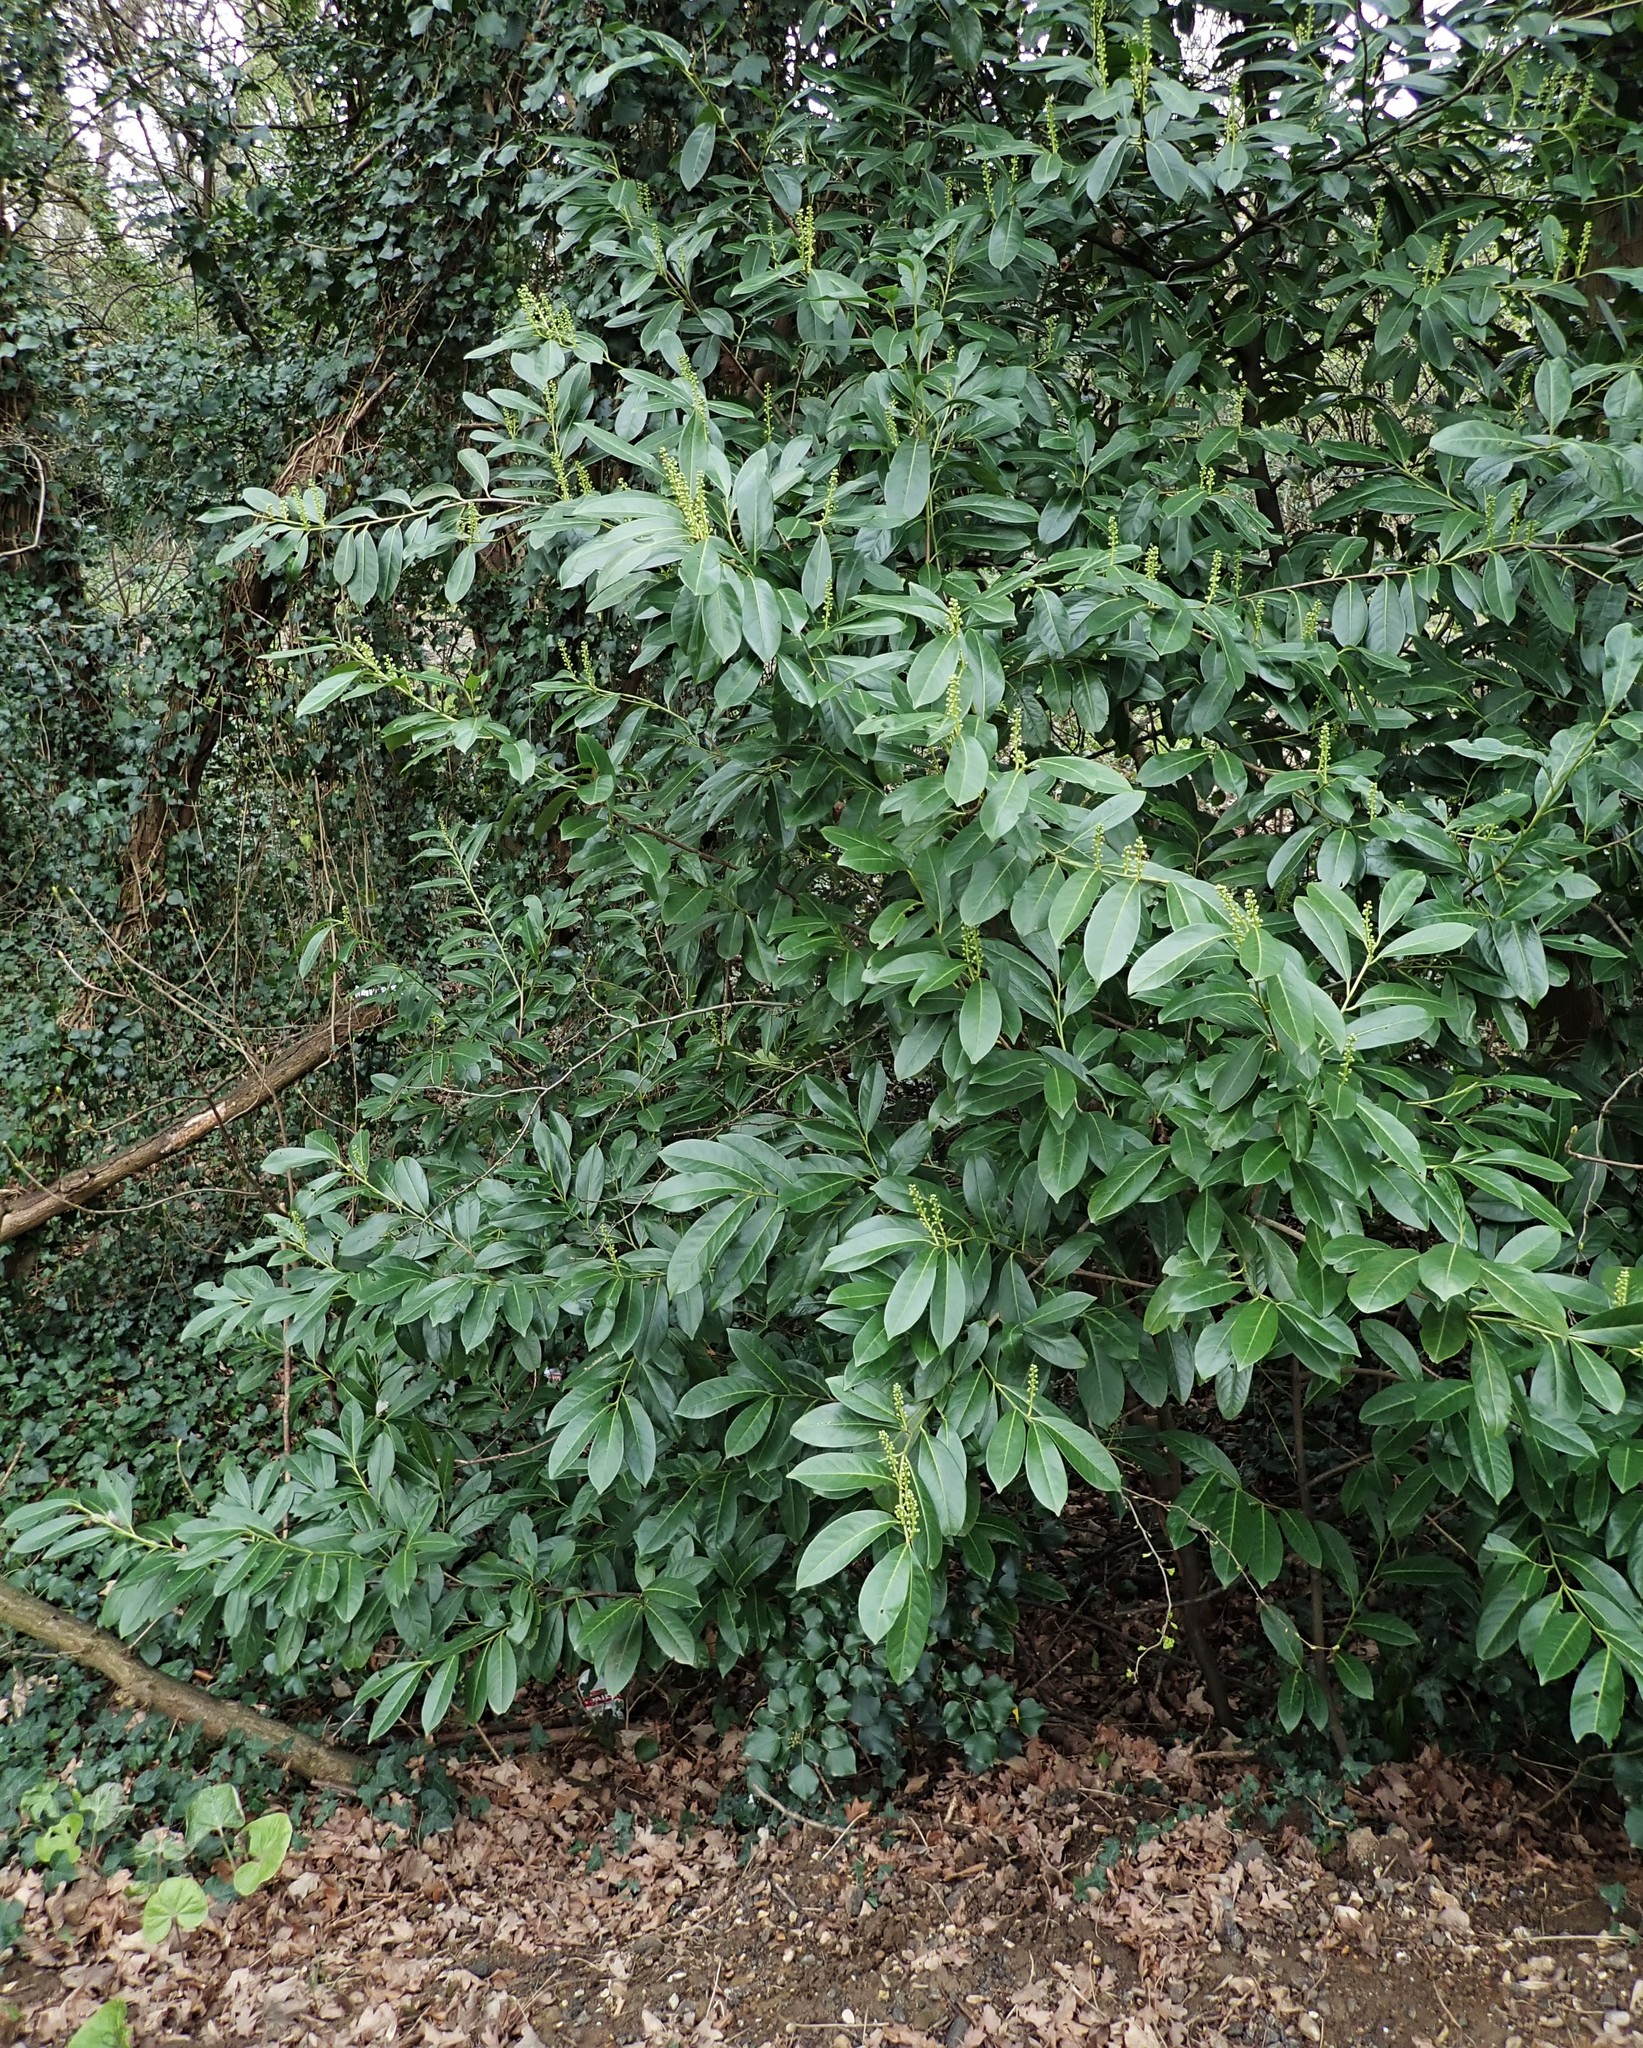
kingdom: Plantae
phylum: Tracheophyta
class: Magnoliopsida
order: Rosales
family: Rosaceae
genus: Prunus
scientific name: Prunus laurocerasus
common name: Cherry laurel
